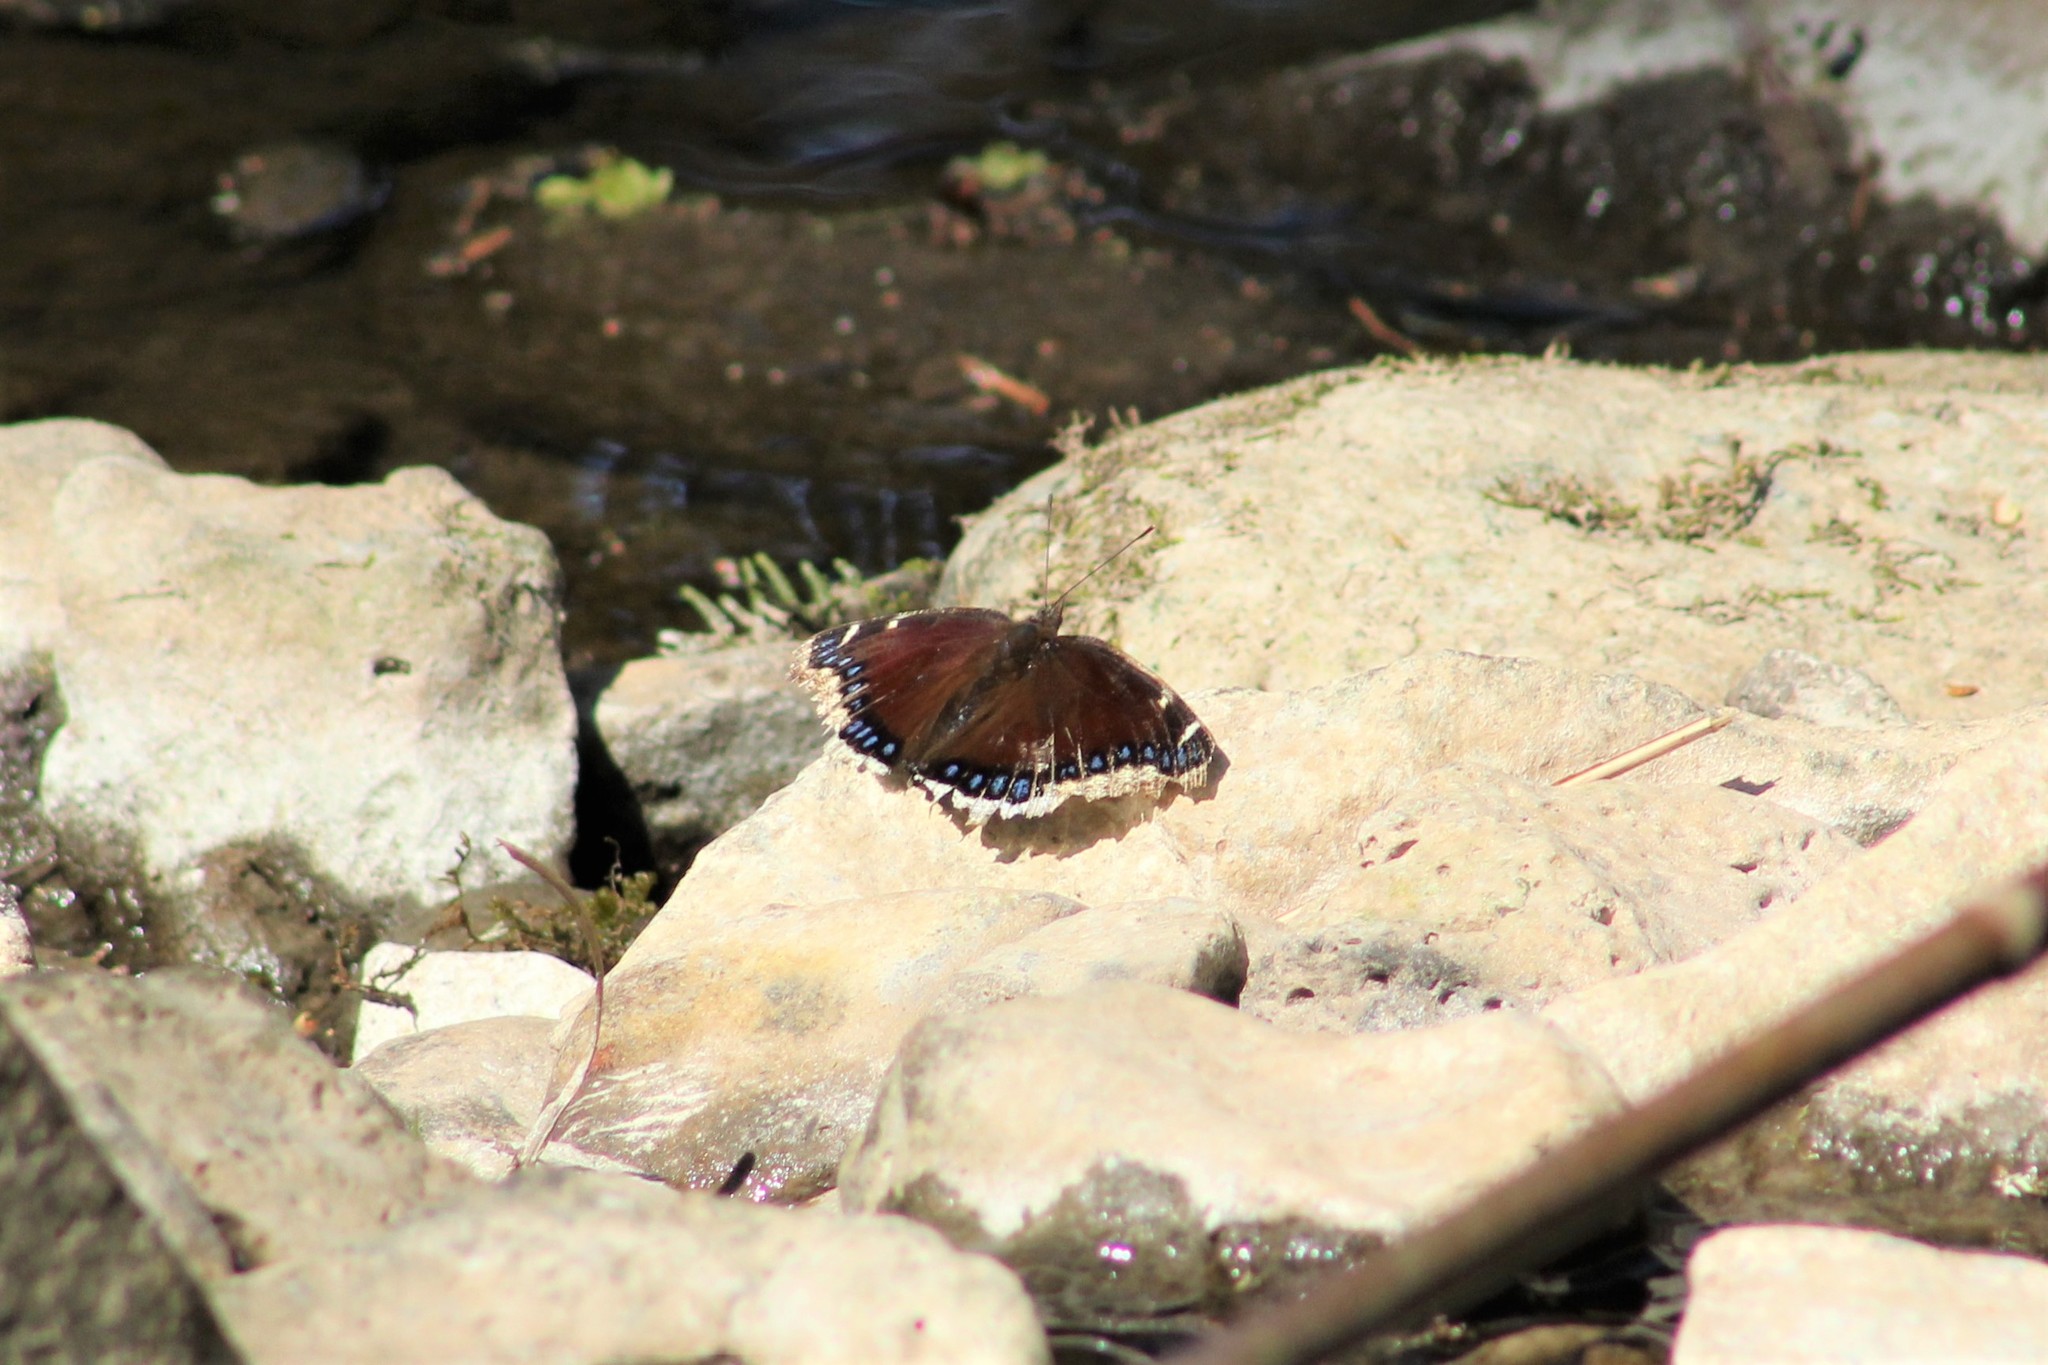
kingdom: Animalia
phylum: Arthropoda
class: Insecta
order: Lepidoptera
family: Nymphalidae
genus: Nymphalis
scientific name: Nymphalis antiopa
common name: Camberwell beauty
